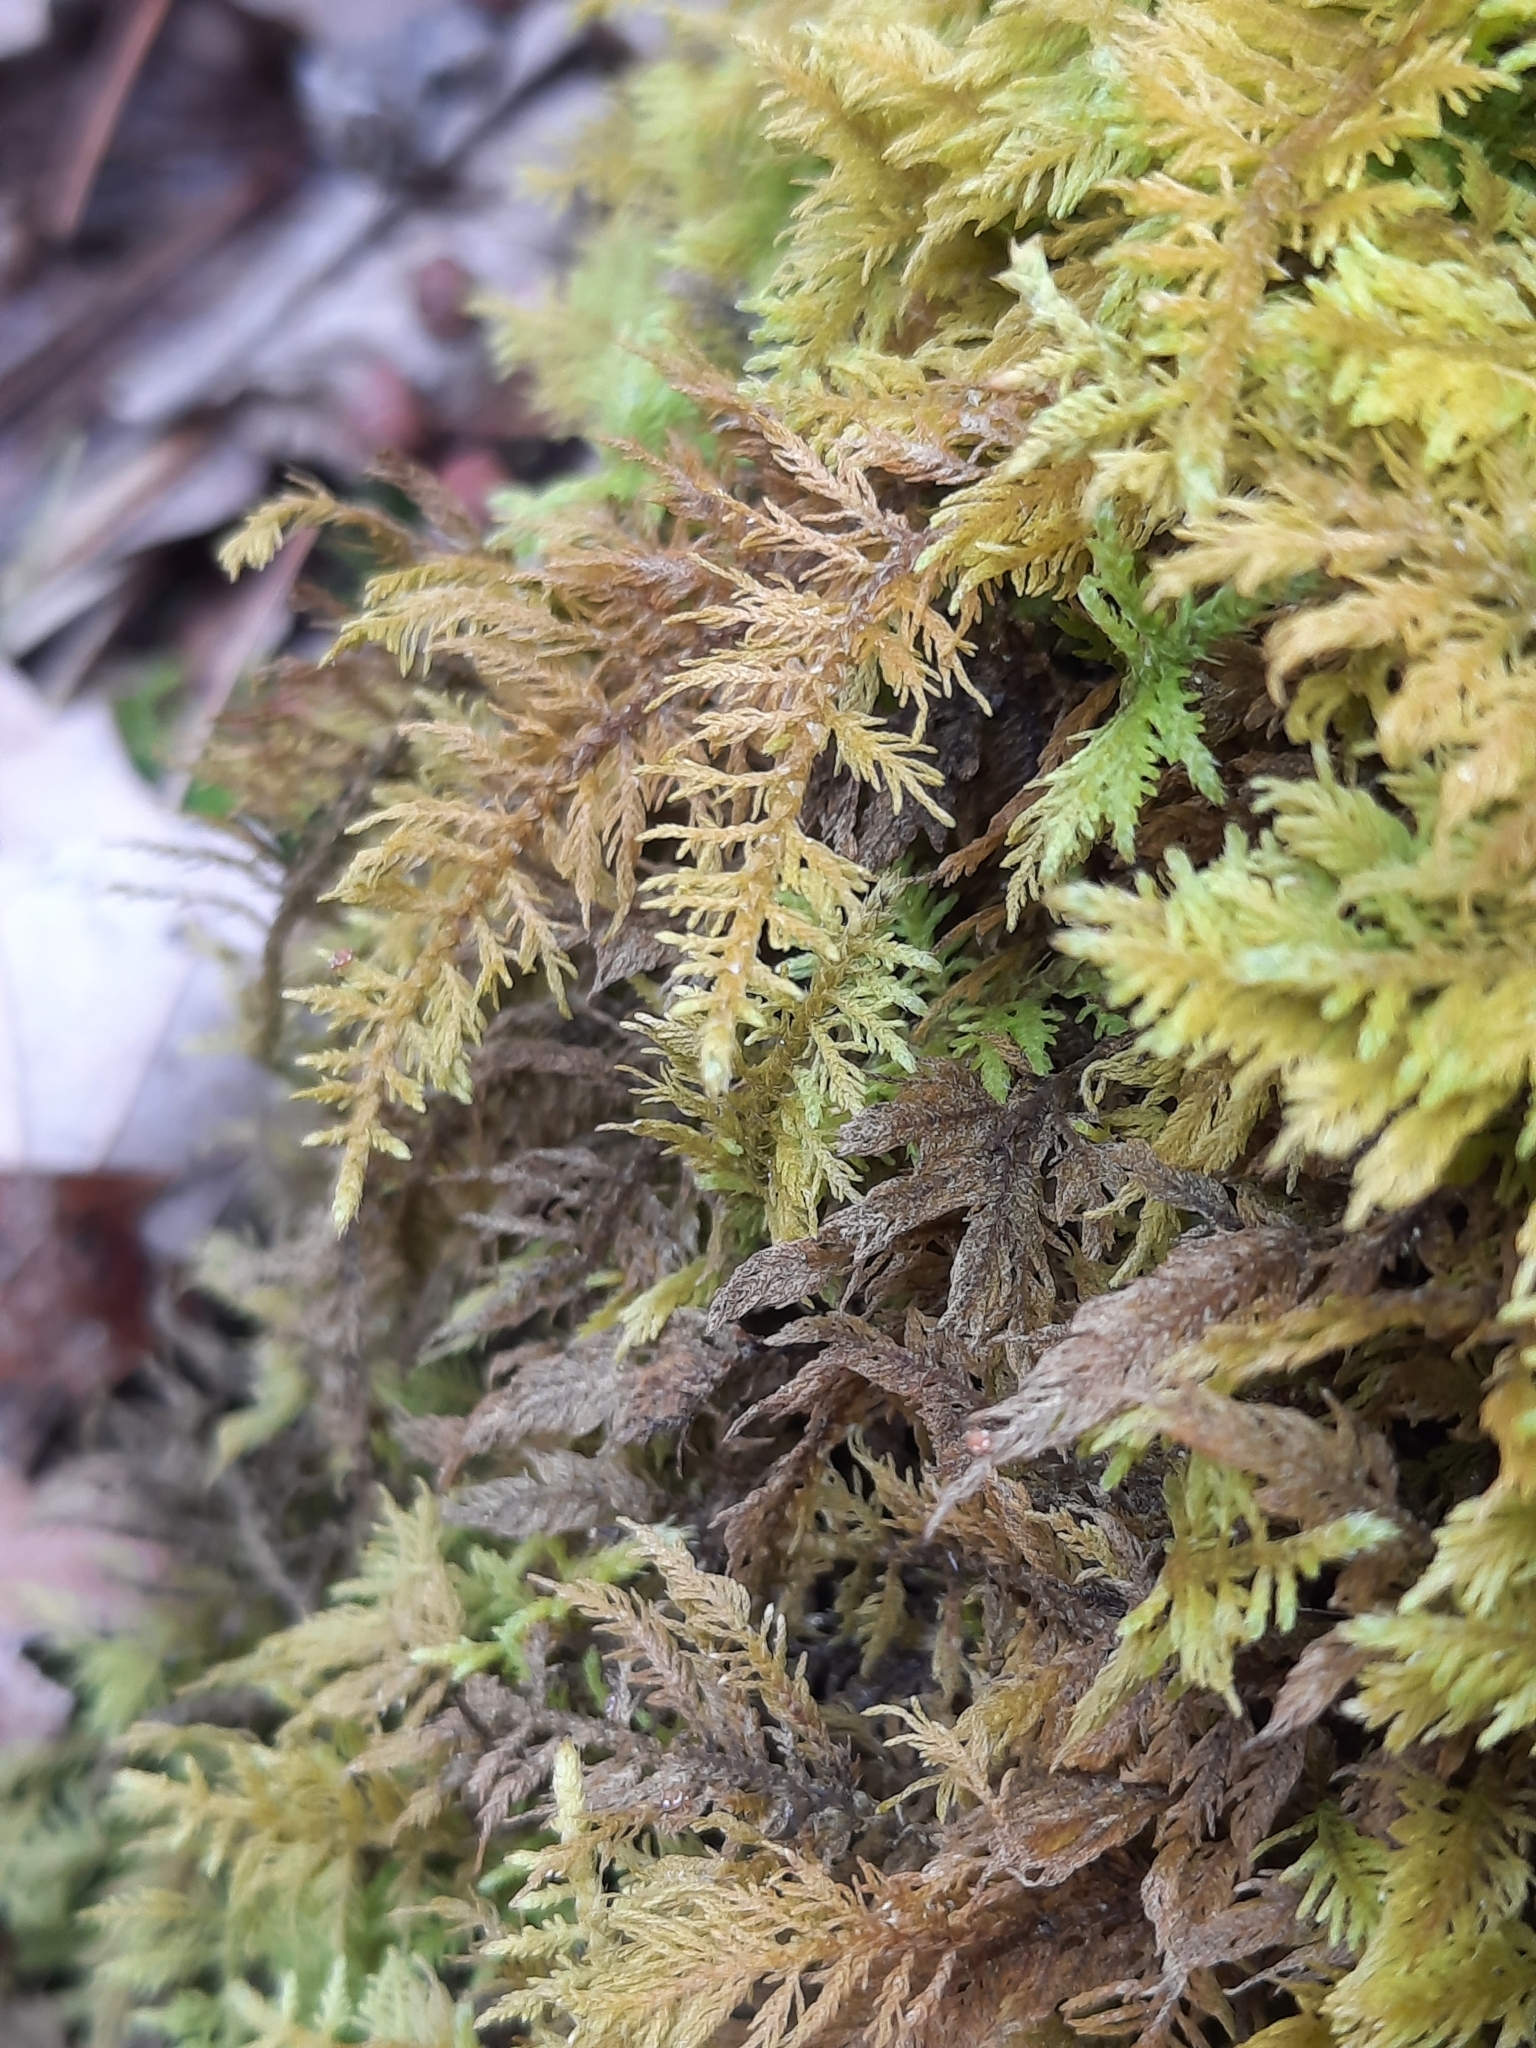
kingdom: Plantae
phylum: Bryophyta
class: Bryopsida
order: Hypnales
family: Thuidiaceae
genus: Thuidium
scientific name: Thuidium delicatulum
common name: Delicate fern moss
